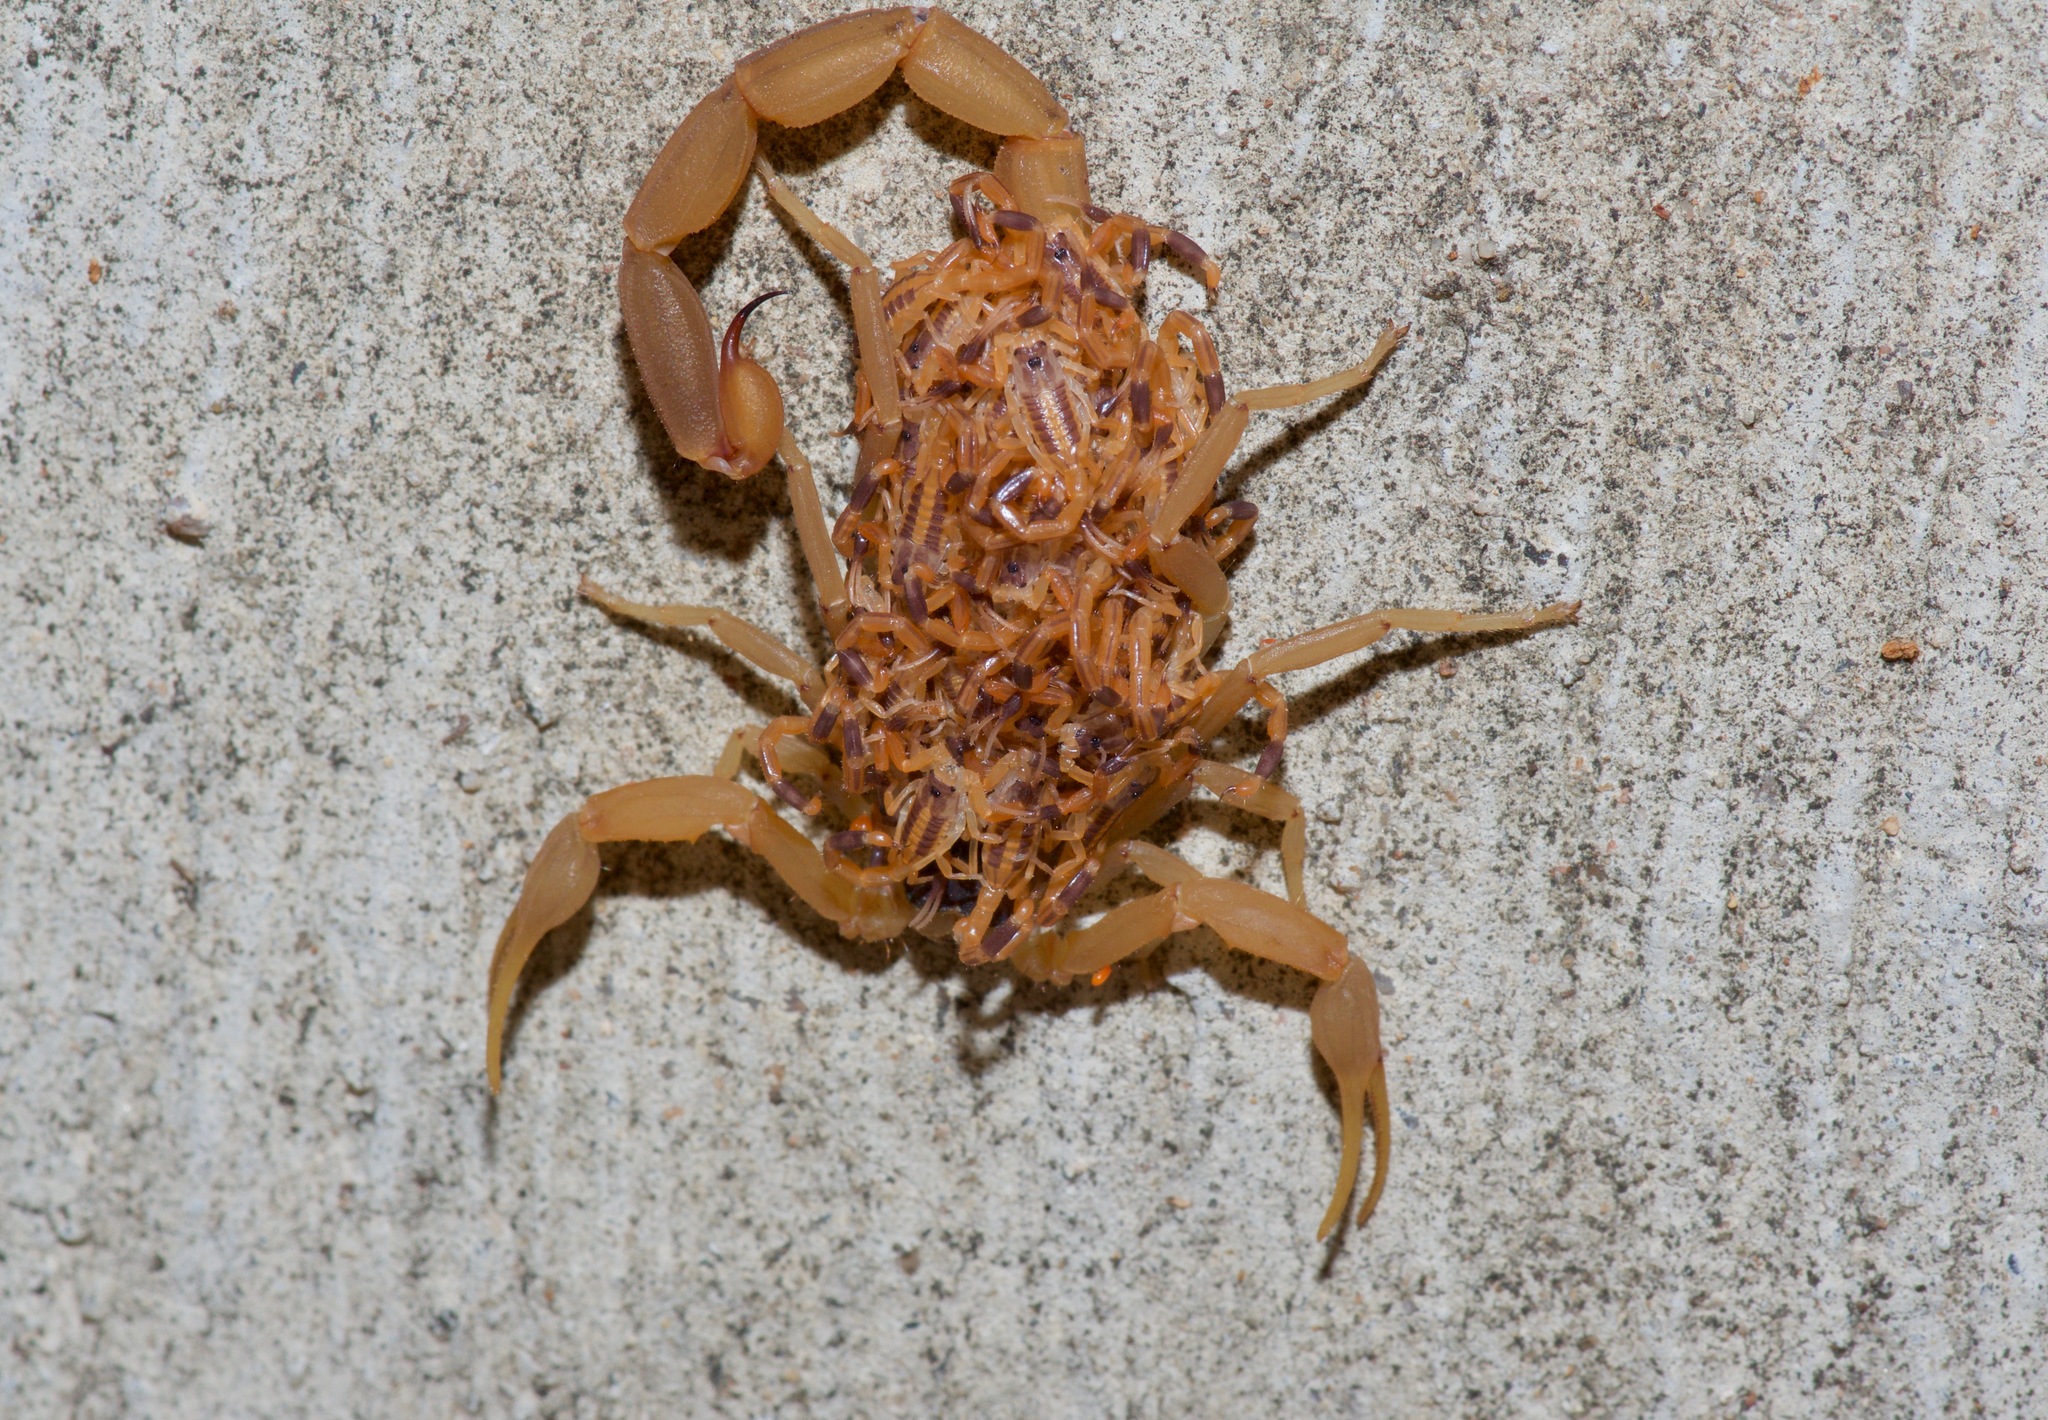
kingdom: Animalia
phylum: Arthropoda
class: Arachnida
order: Scorpiones
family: Buthidae
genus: Centruroides
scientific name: Centruroides vittatus
